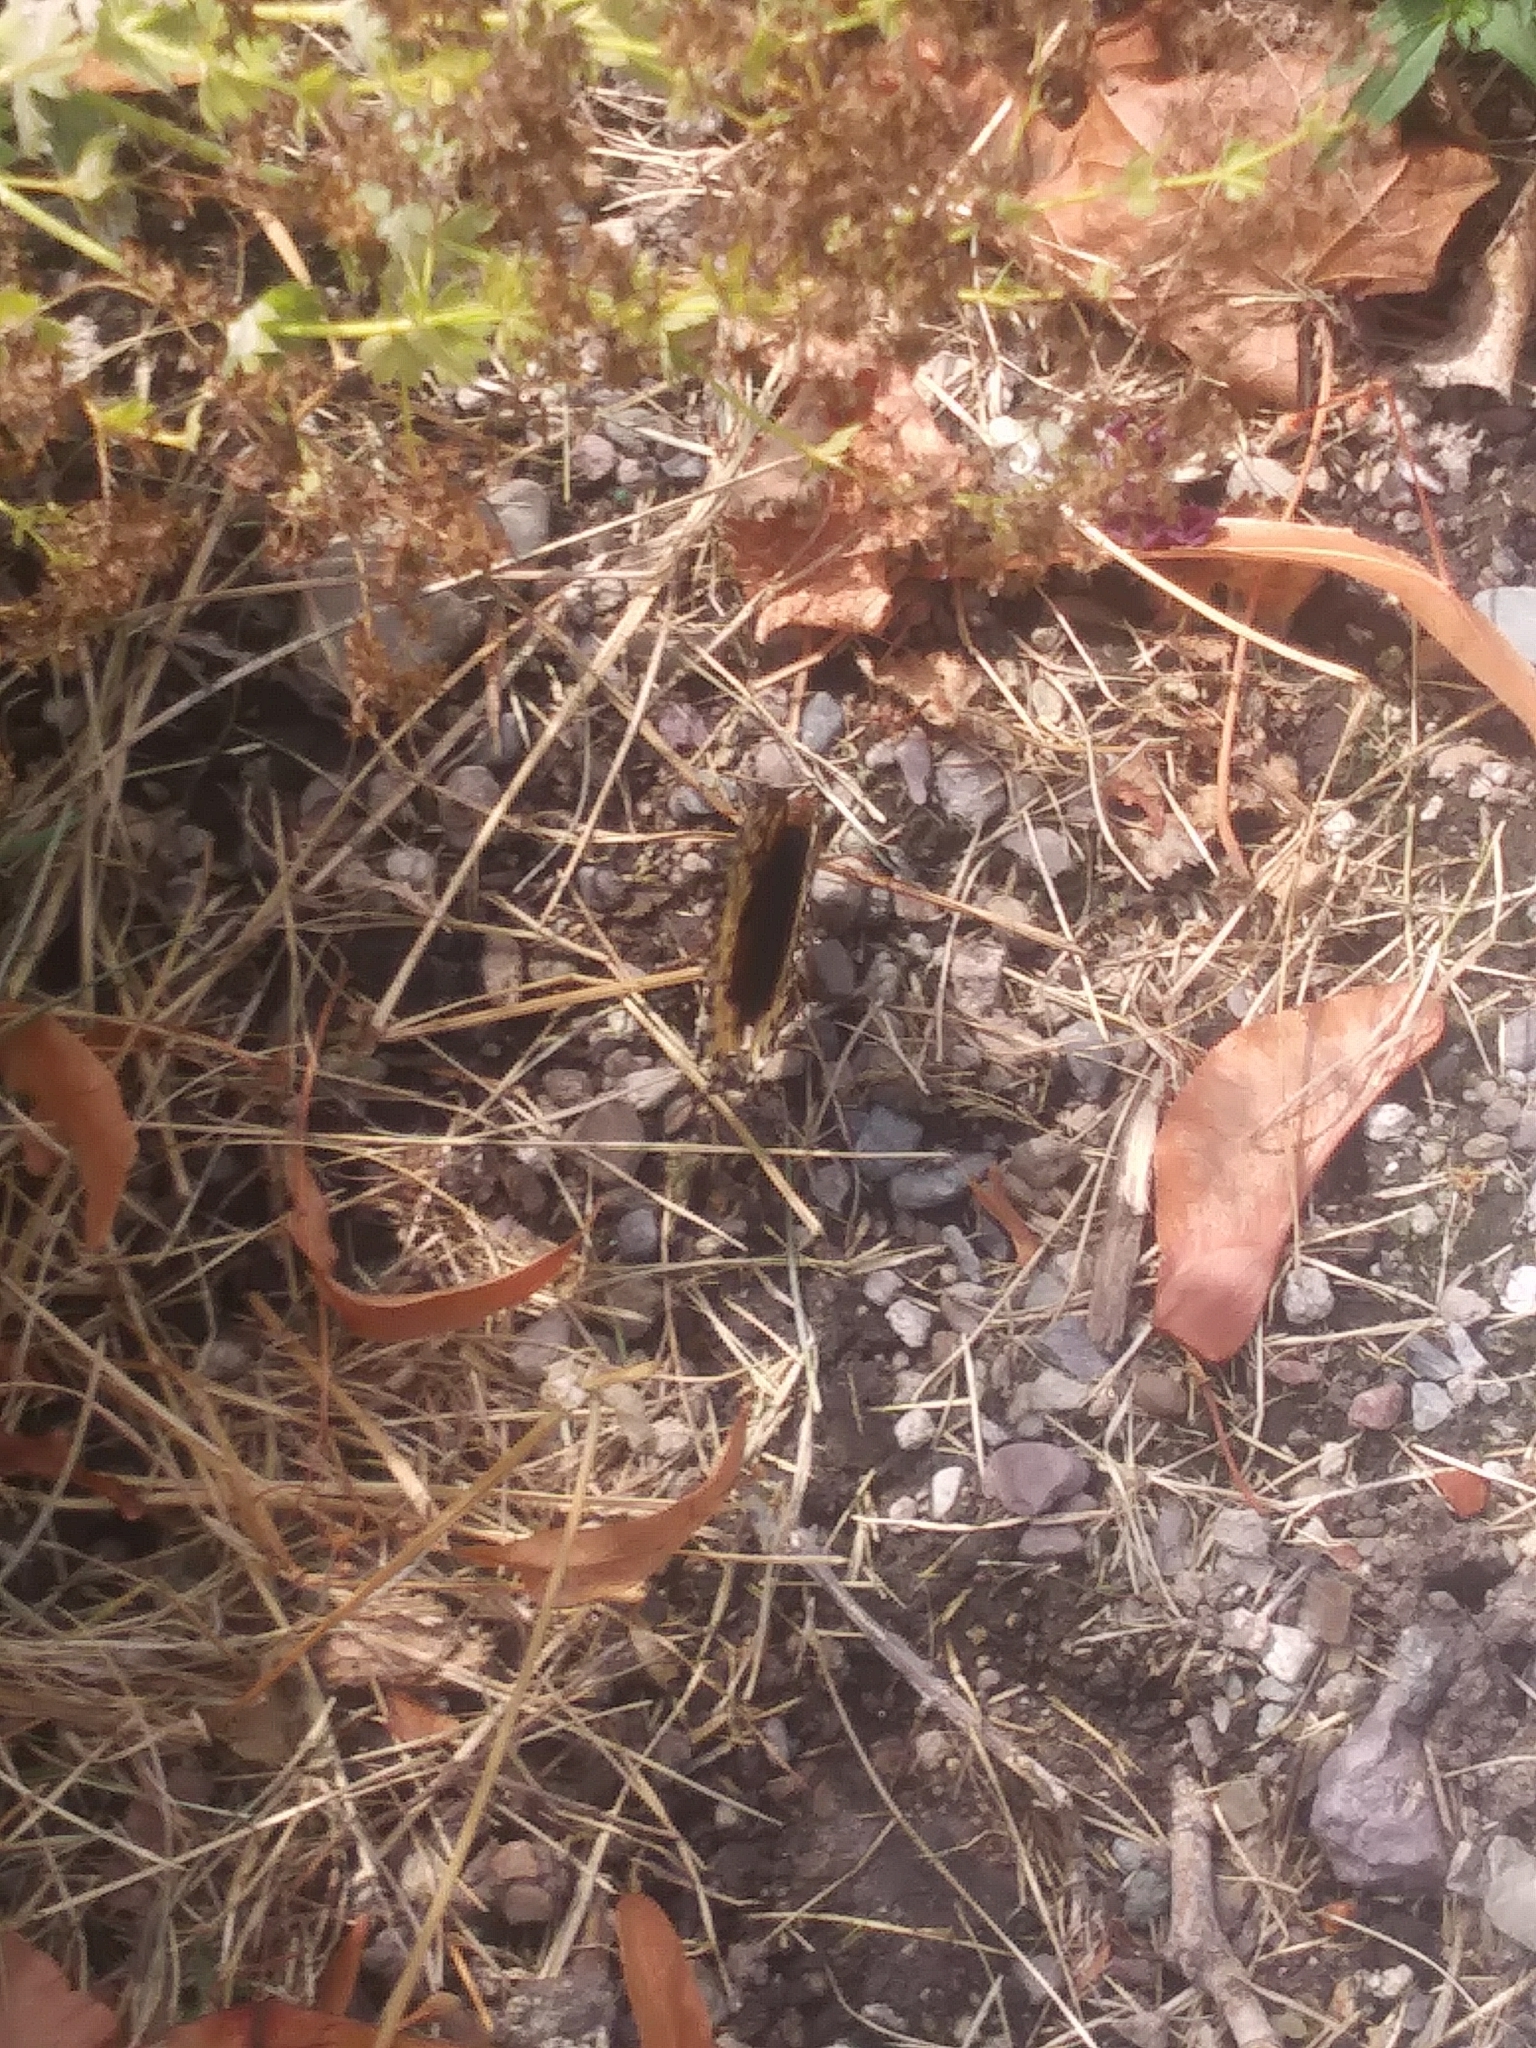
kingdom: Animalia
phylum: Arthropoda
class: Insecta
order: Lepidoptera
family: Nymphalidae
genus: Speyeria
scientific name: Speyeria cybele
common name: Great spangled fritillary
